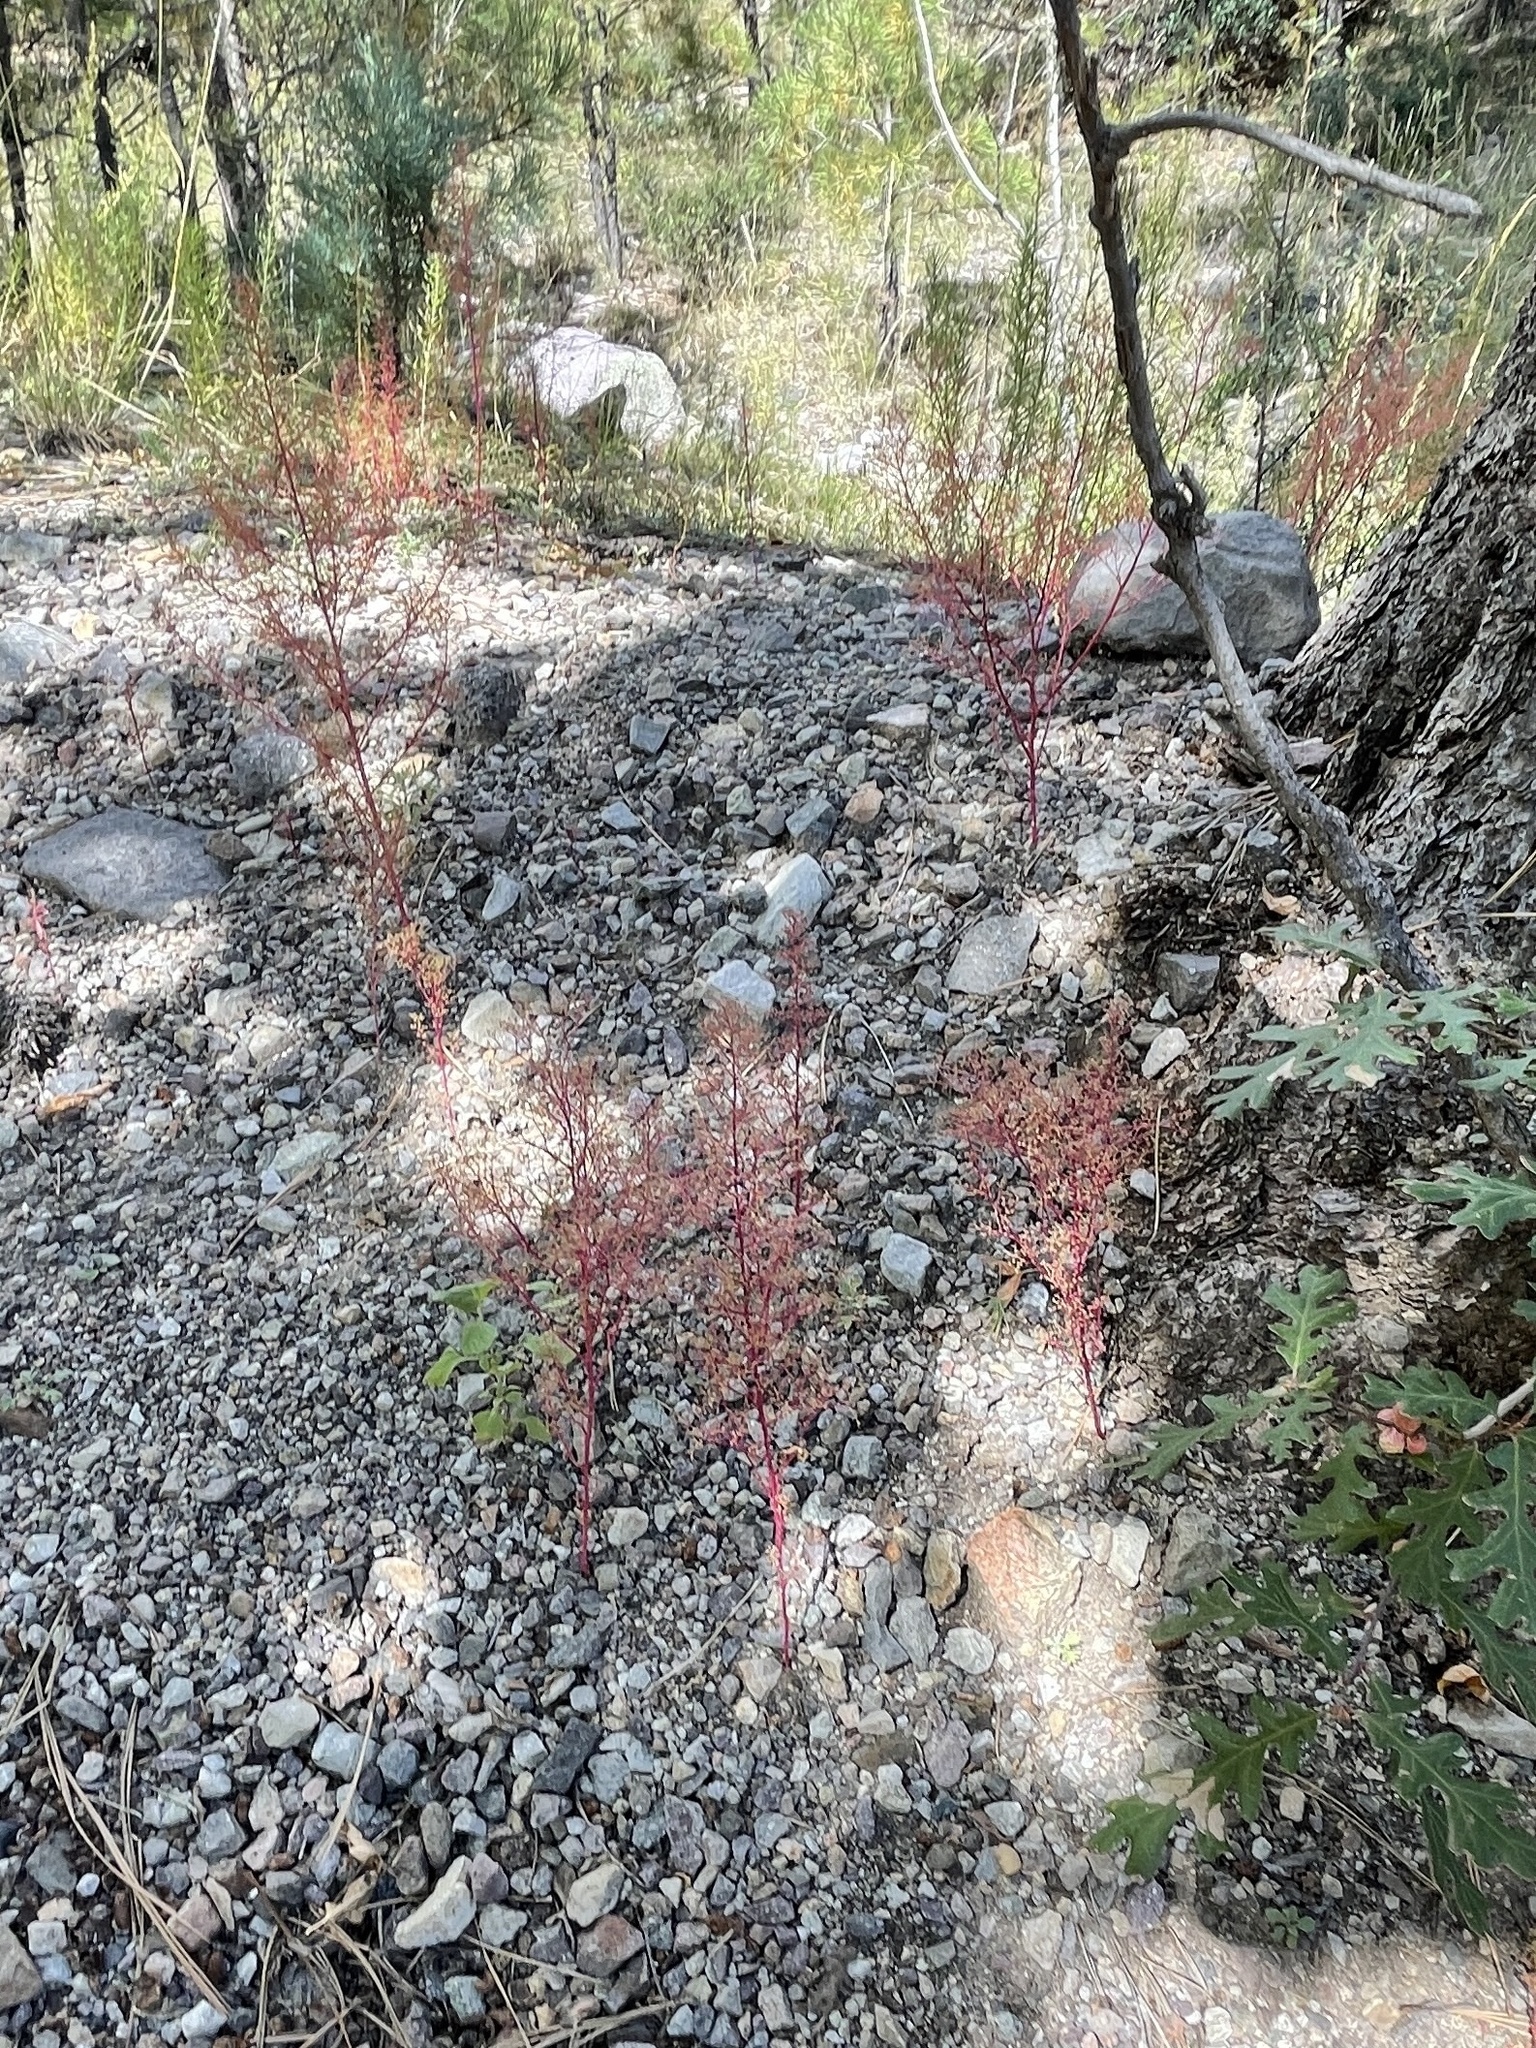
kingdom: Plantae
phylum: Tracheophyta
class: Magnoliopsida
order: Caryophyllales
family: Amaranthaceae
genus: Dysphania
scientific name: Dysphania incisa
